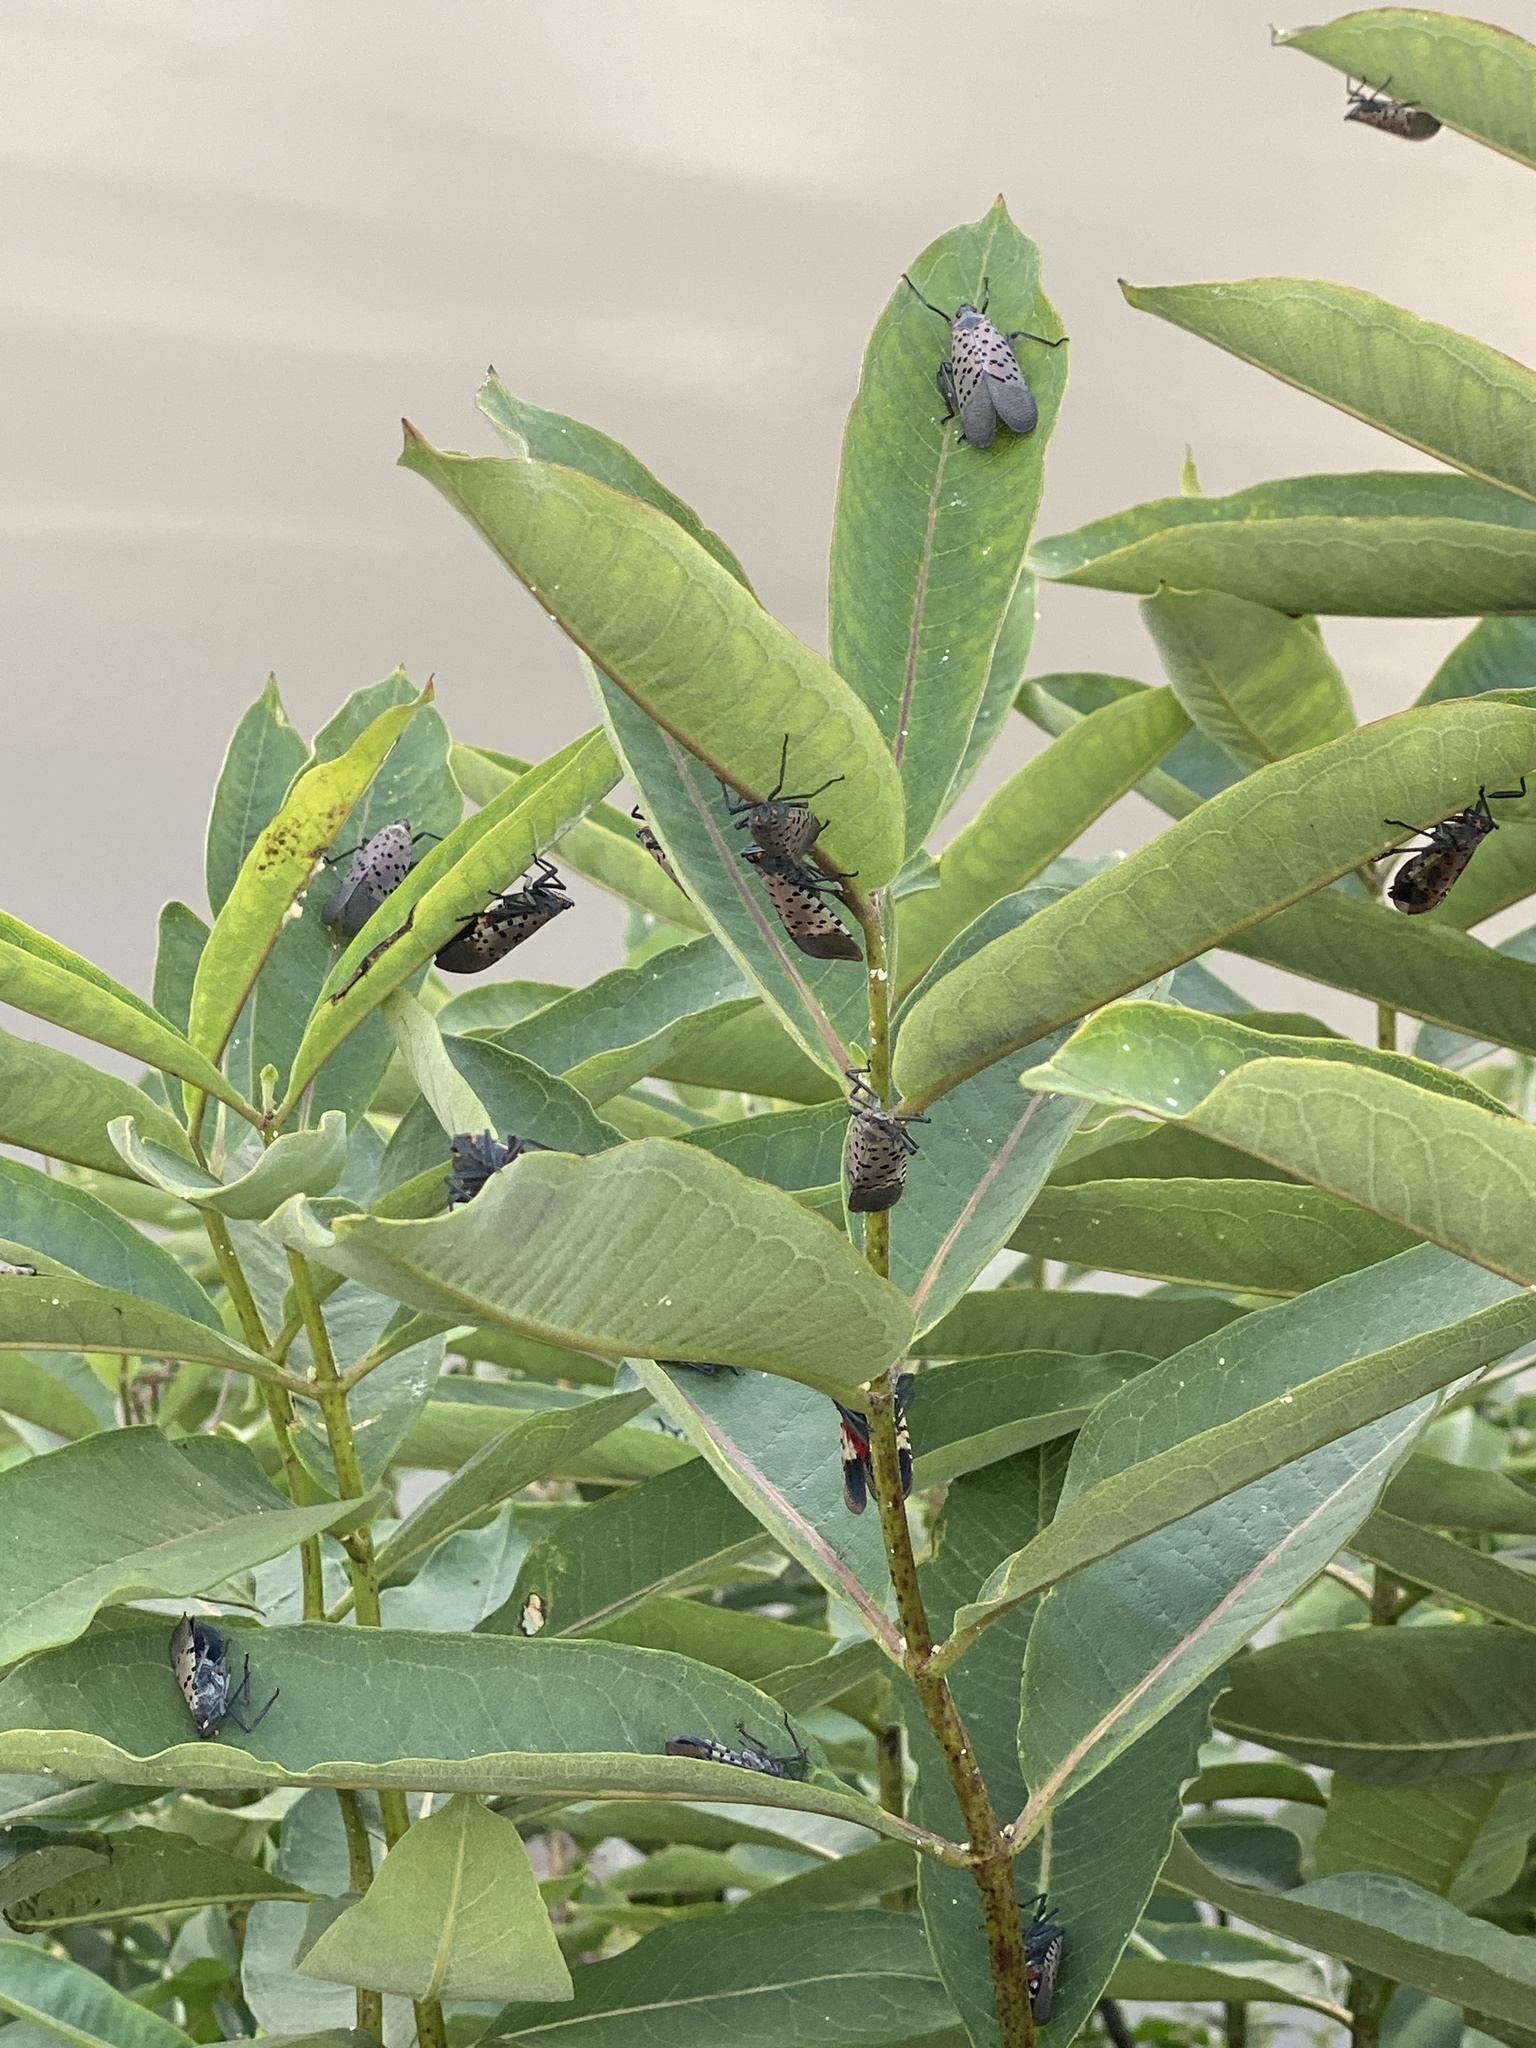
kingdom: Animalia
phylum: Arthropoda
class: Insecta
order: Hemiptera
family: Fulgoridae
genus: Lycorma
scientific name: Lycorma delicatula
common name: Spotted lanternfly
